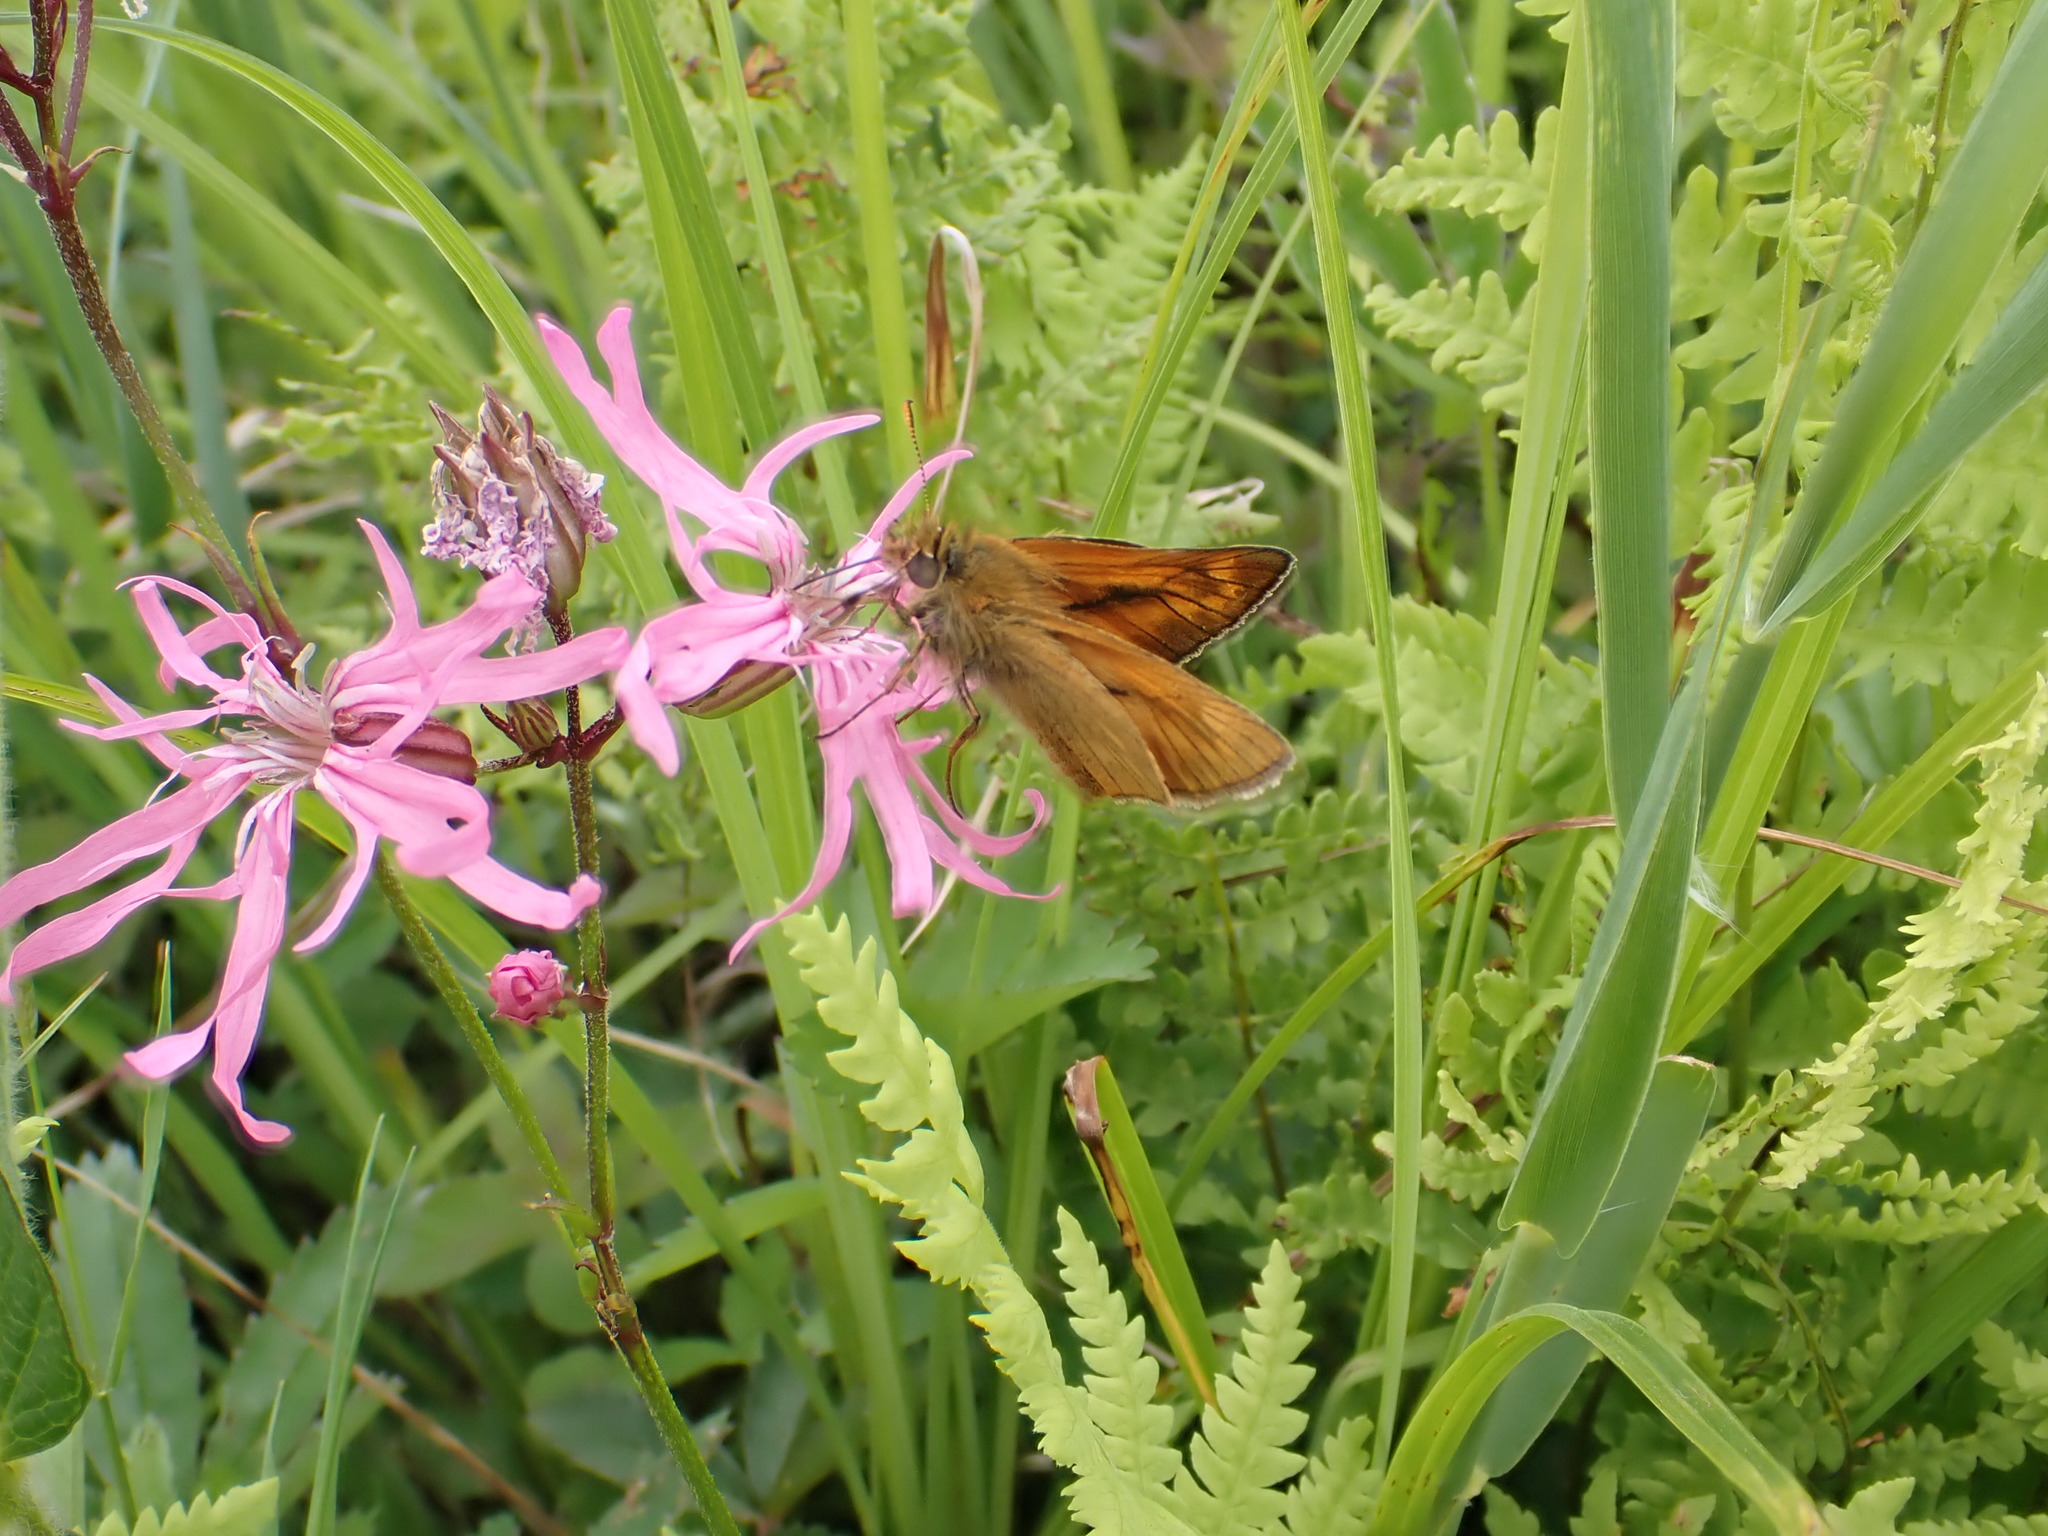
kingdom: Animalia
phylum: Arthropoda
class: Insecta
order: Lepidoptera
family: Hesperiidae
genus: Ochlodes
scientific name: Ochlodes venata
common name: Large skipper
